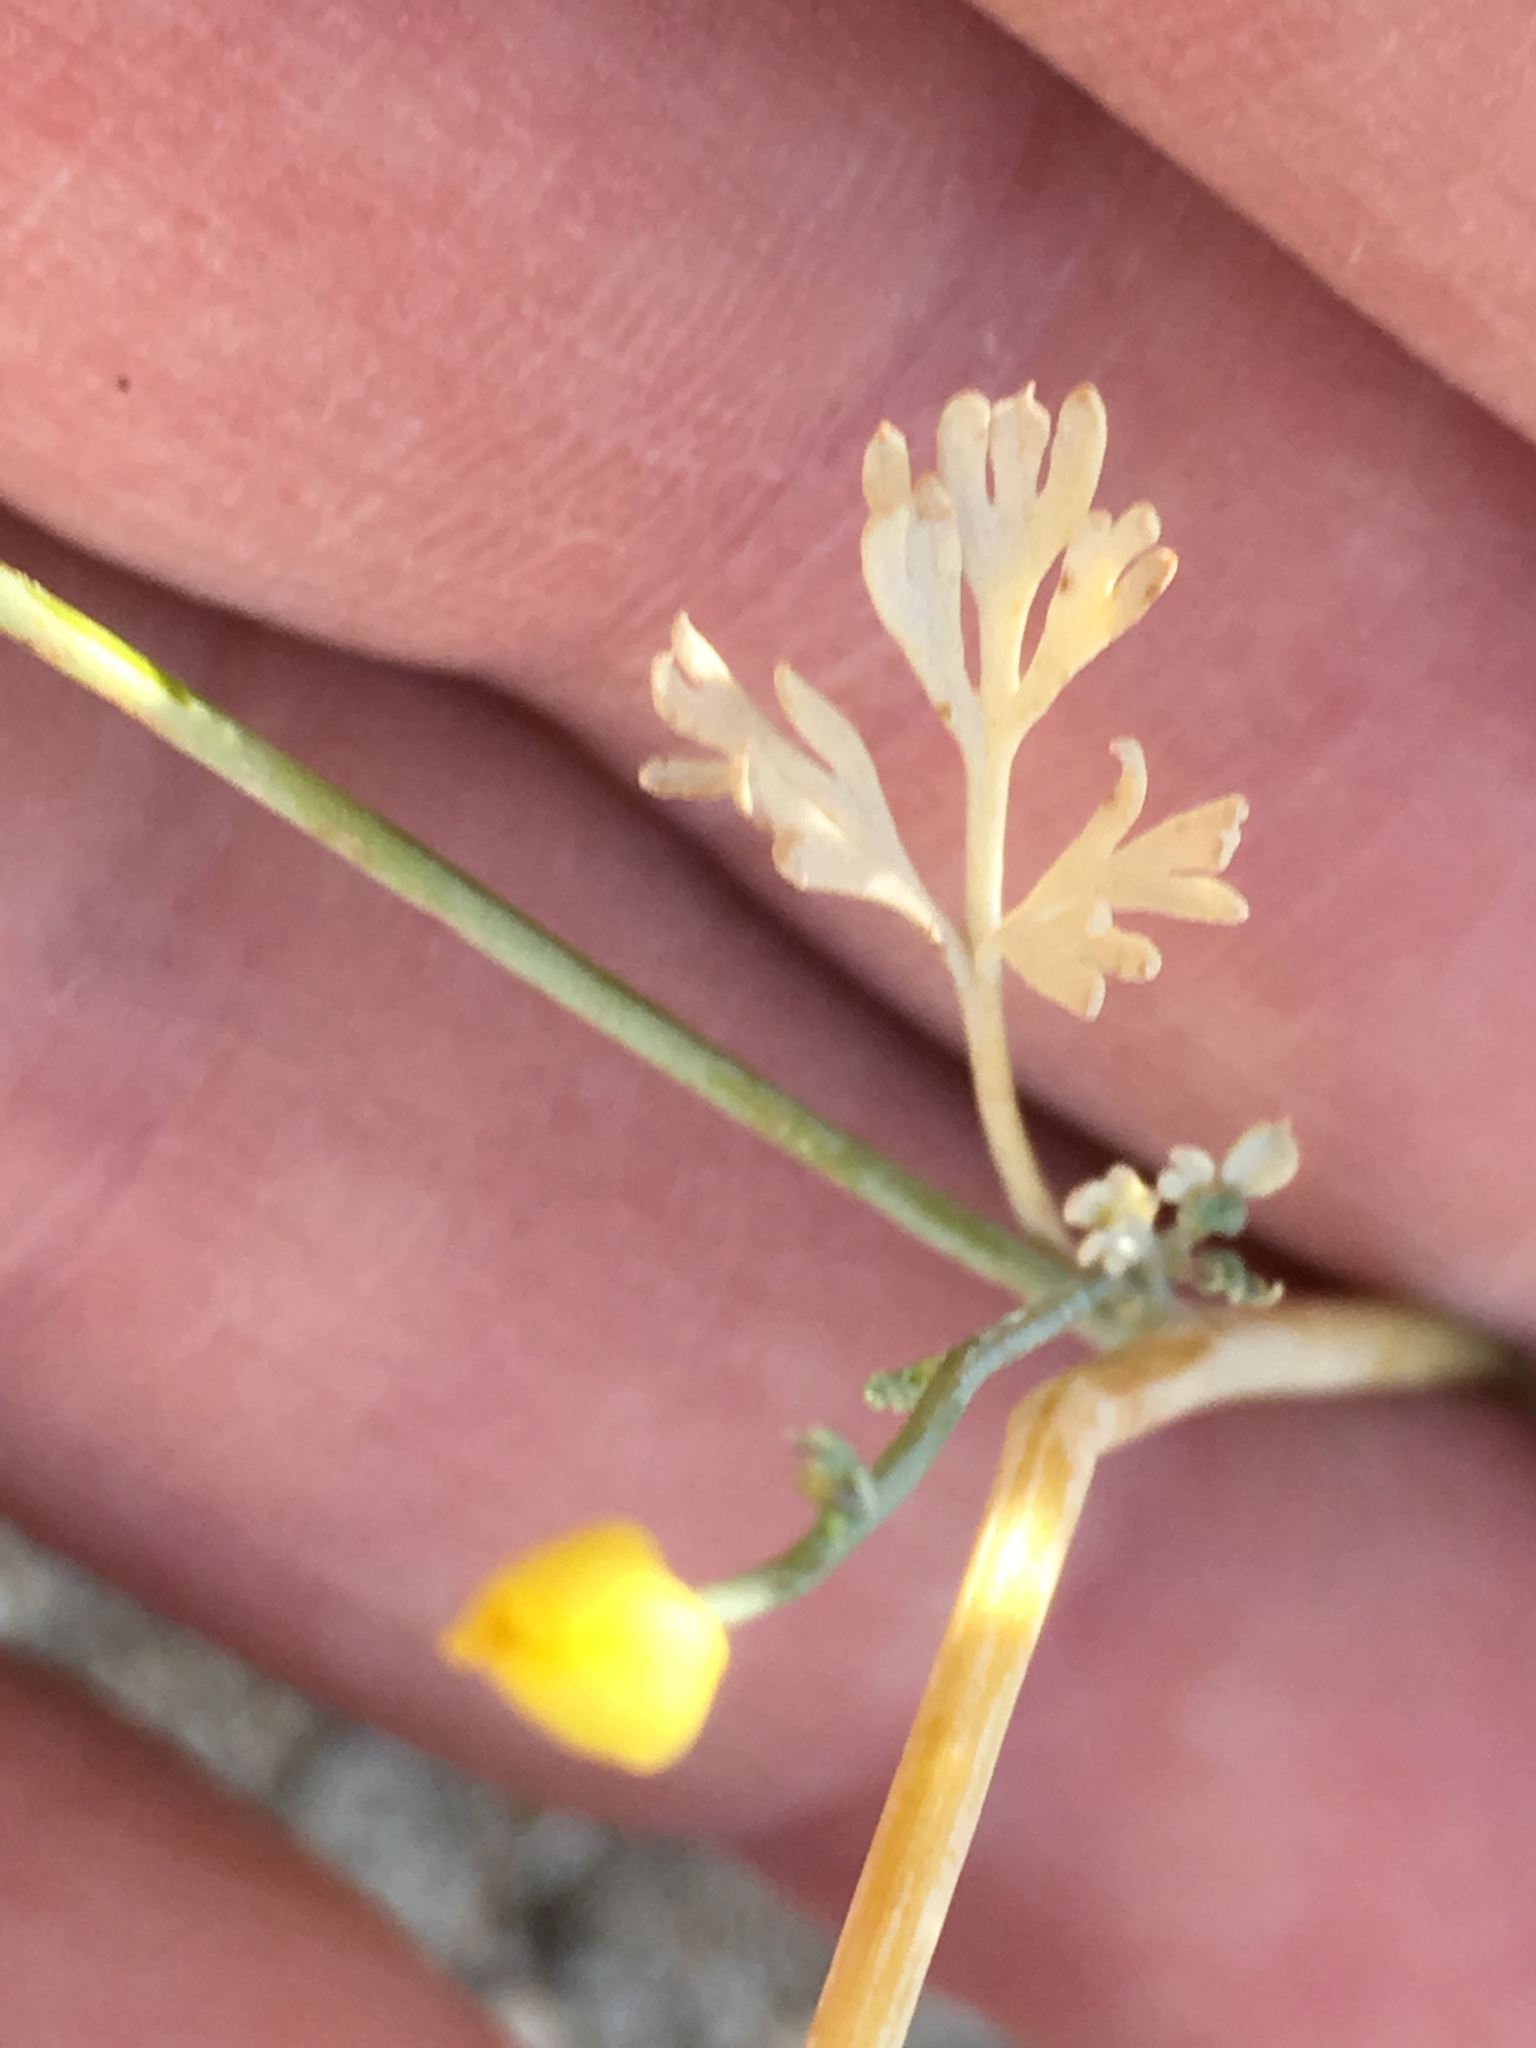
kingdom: Plantae
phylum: Tracheophyta
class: Magnoliopsida
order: Ranunculales
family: Papaveraceae
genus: Eschscholzia
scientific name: Eschscholzia minutiflora
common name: Small-flower california-poppy
